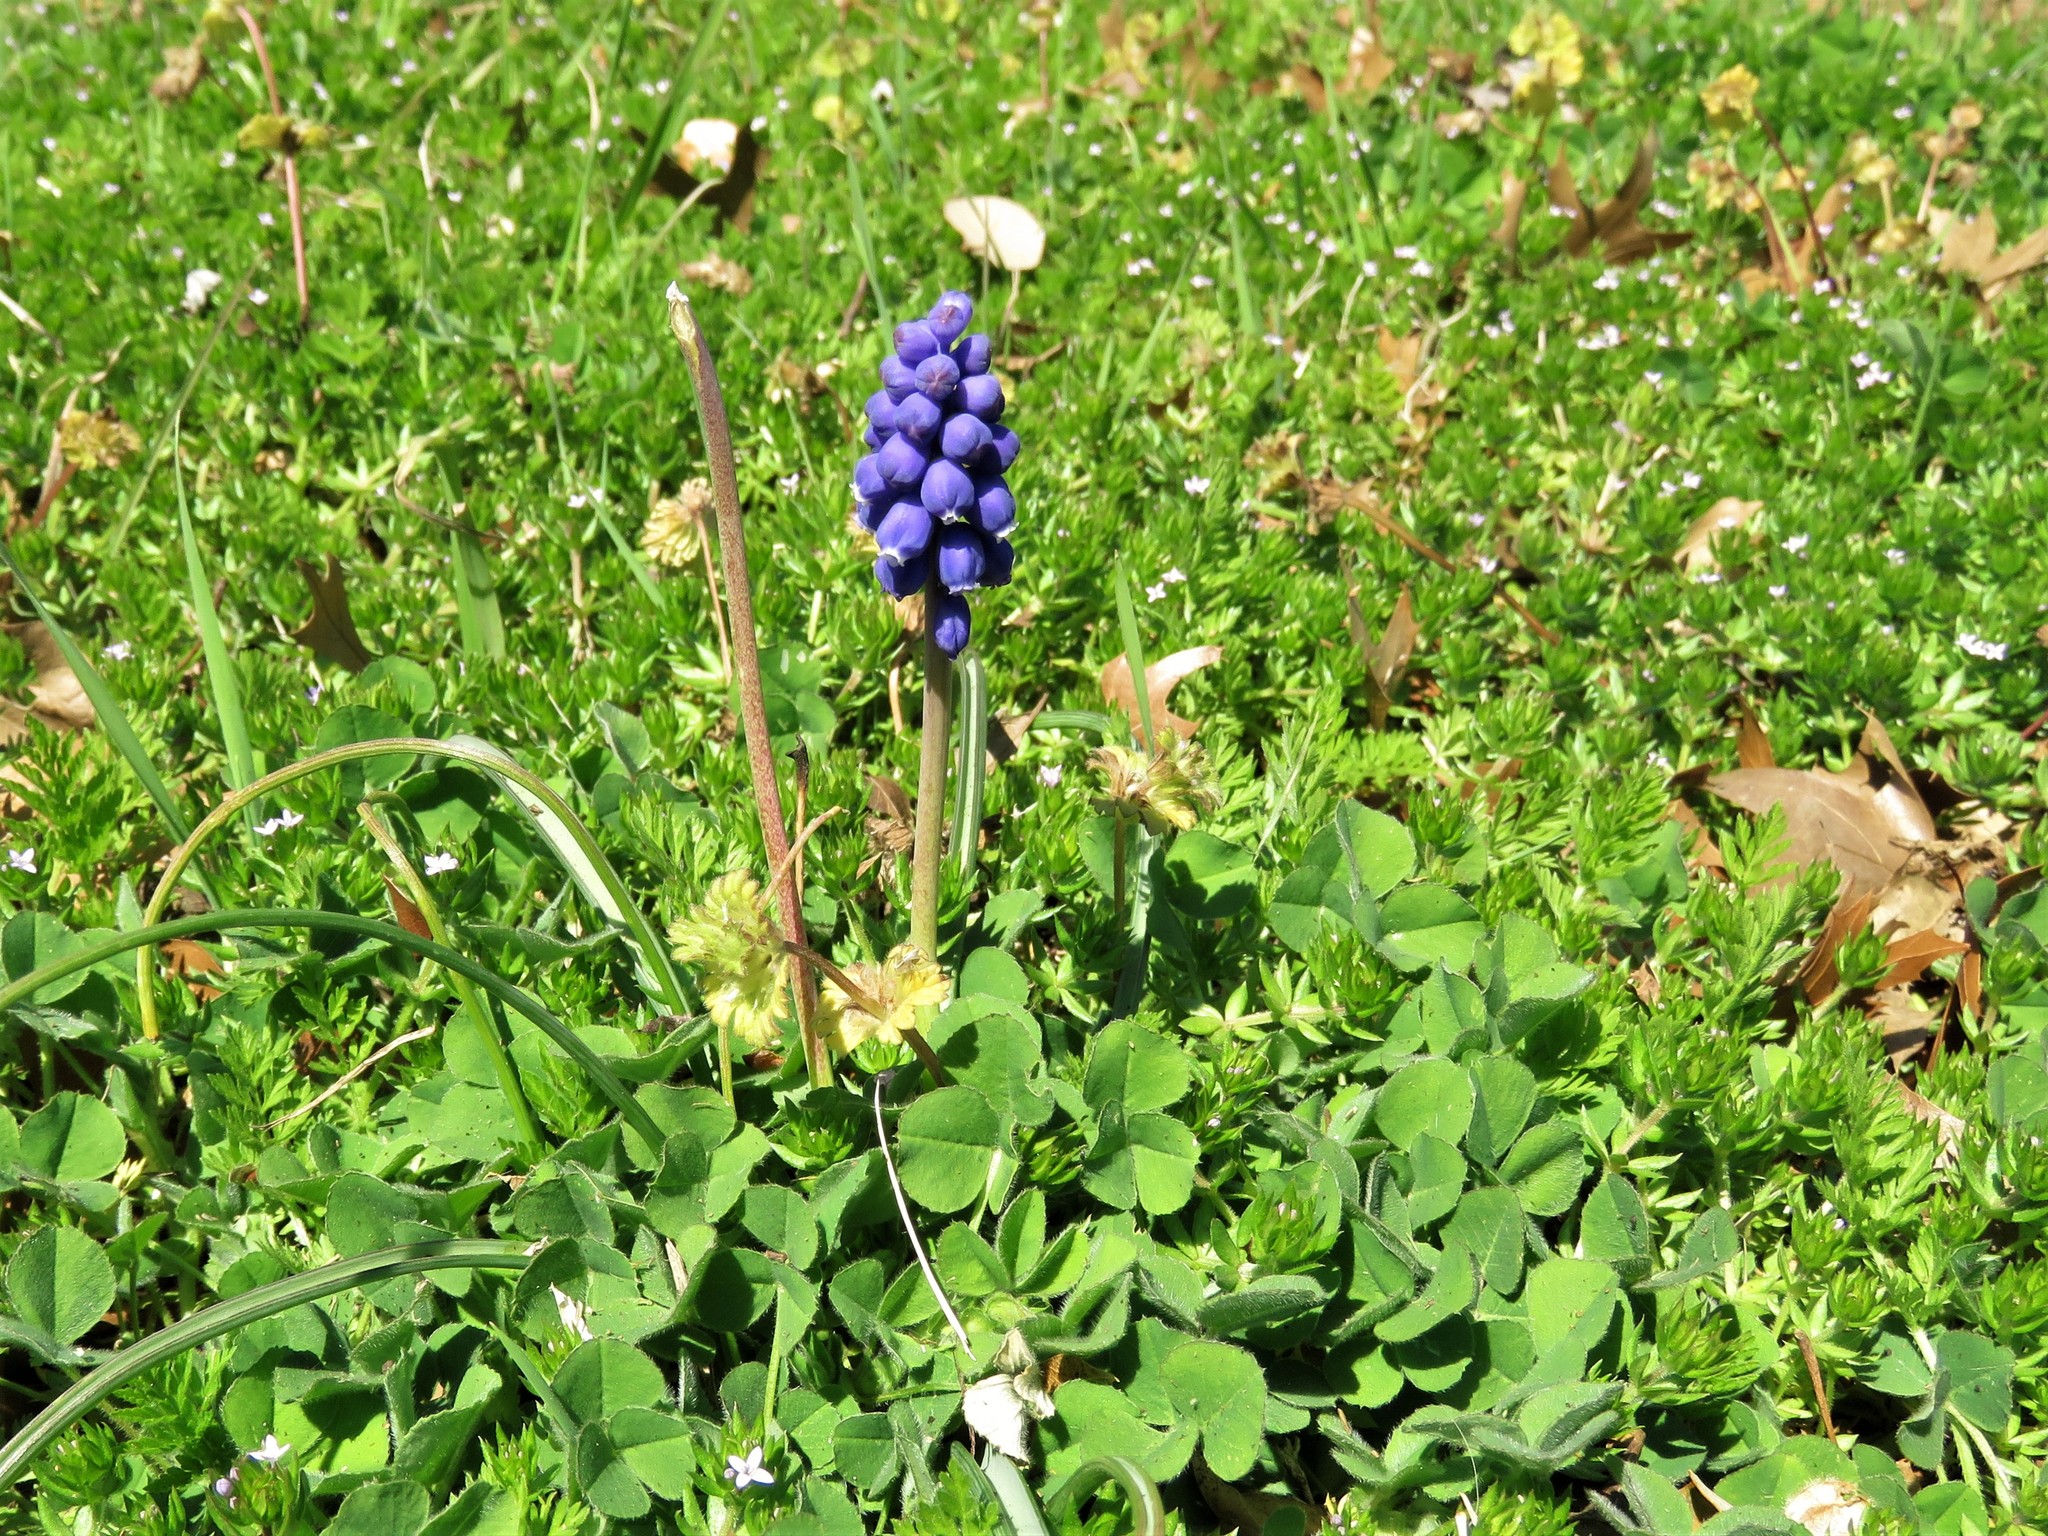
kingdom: Plantae
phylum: Tracheophyta
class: Liliopsida
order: Asparagales
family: Asparagaceae
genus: Muscari
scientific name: Muscari neglectum
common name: Grape-hyacinth
